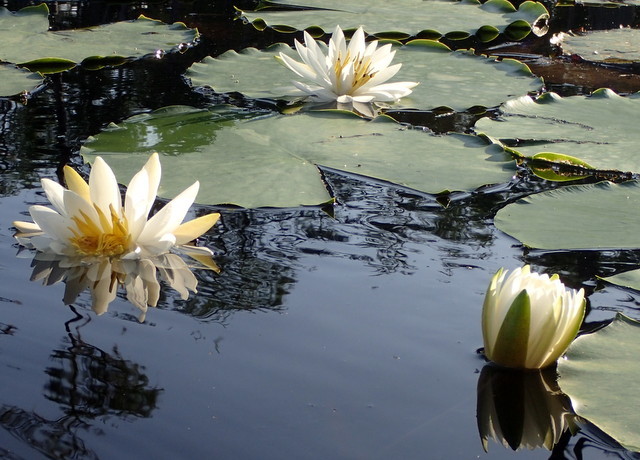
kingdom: Plantae
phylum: Tracheophyta
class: Magnoliopsida
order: Nymphaeales
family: Nymphaeaceae
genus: Nymphaea
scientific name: Nymphaea odorata
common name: Fragrant water-lily
